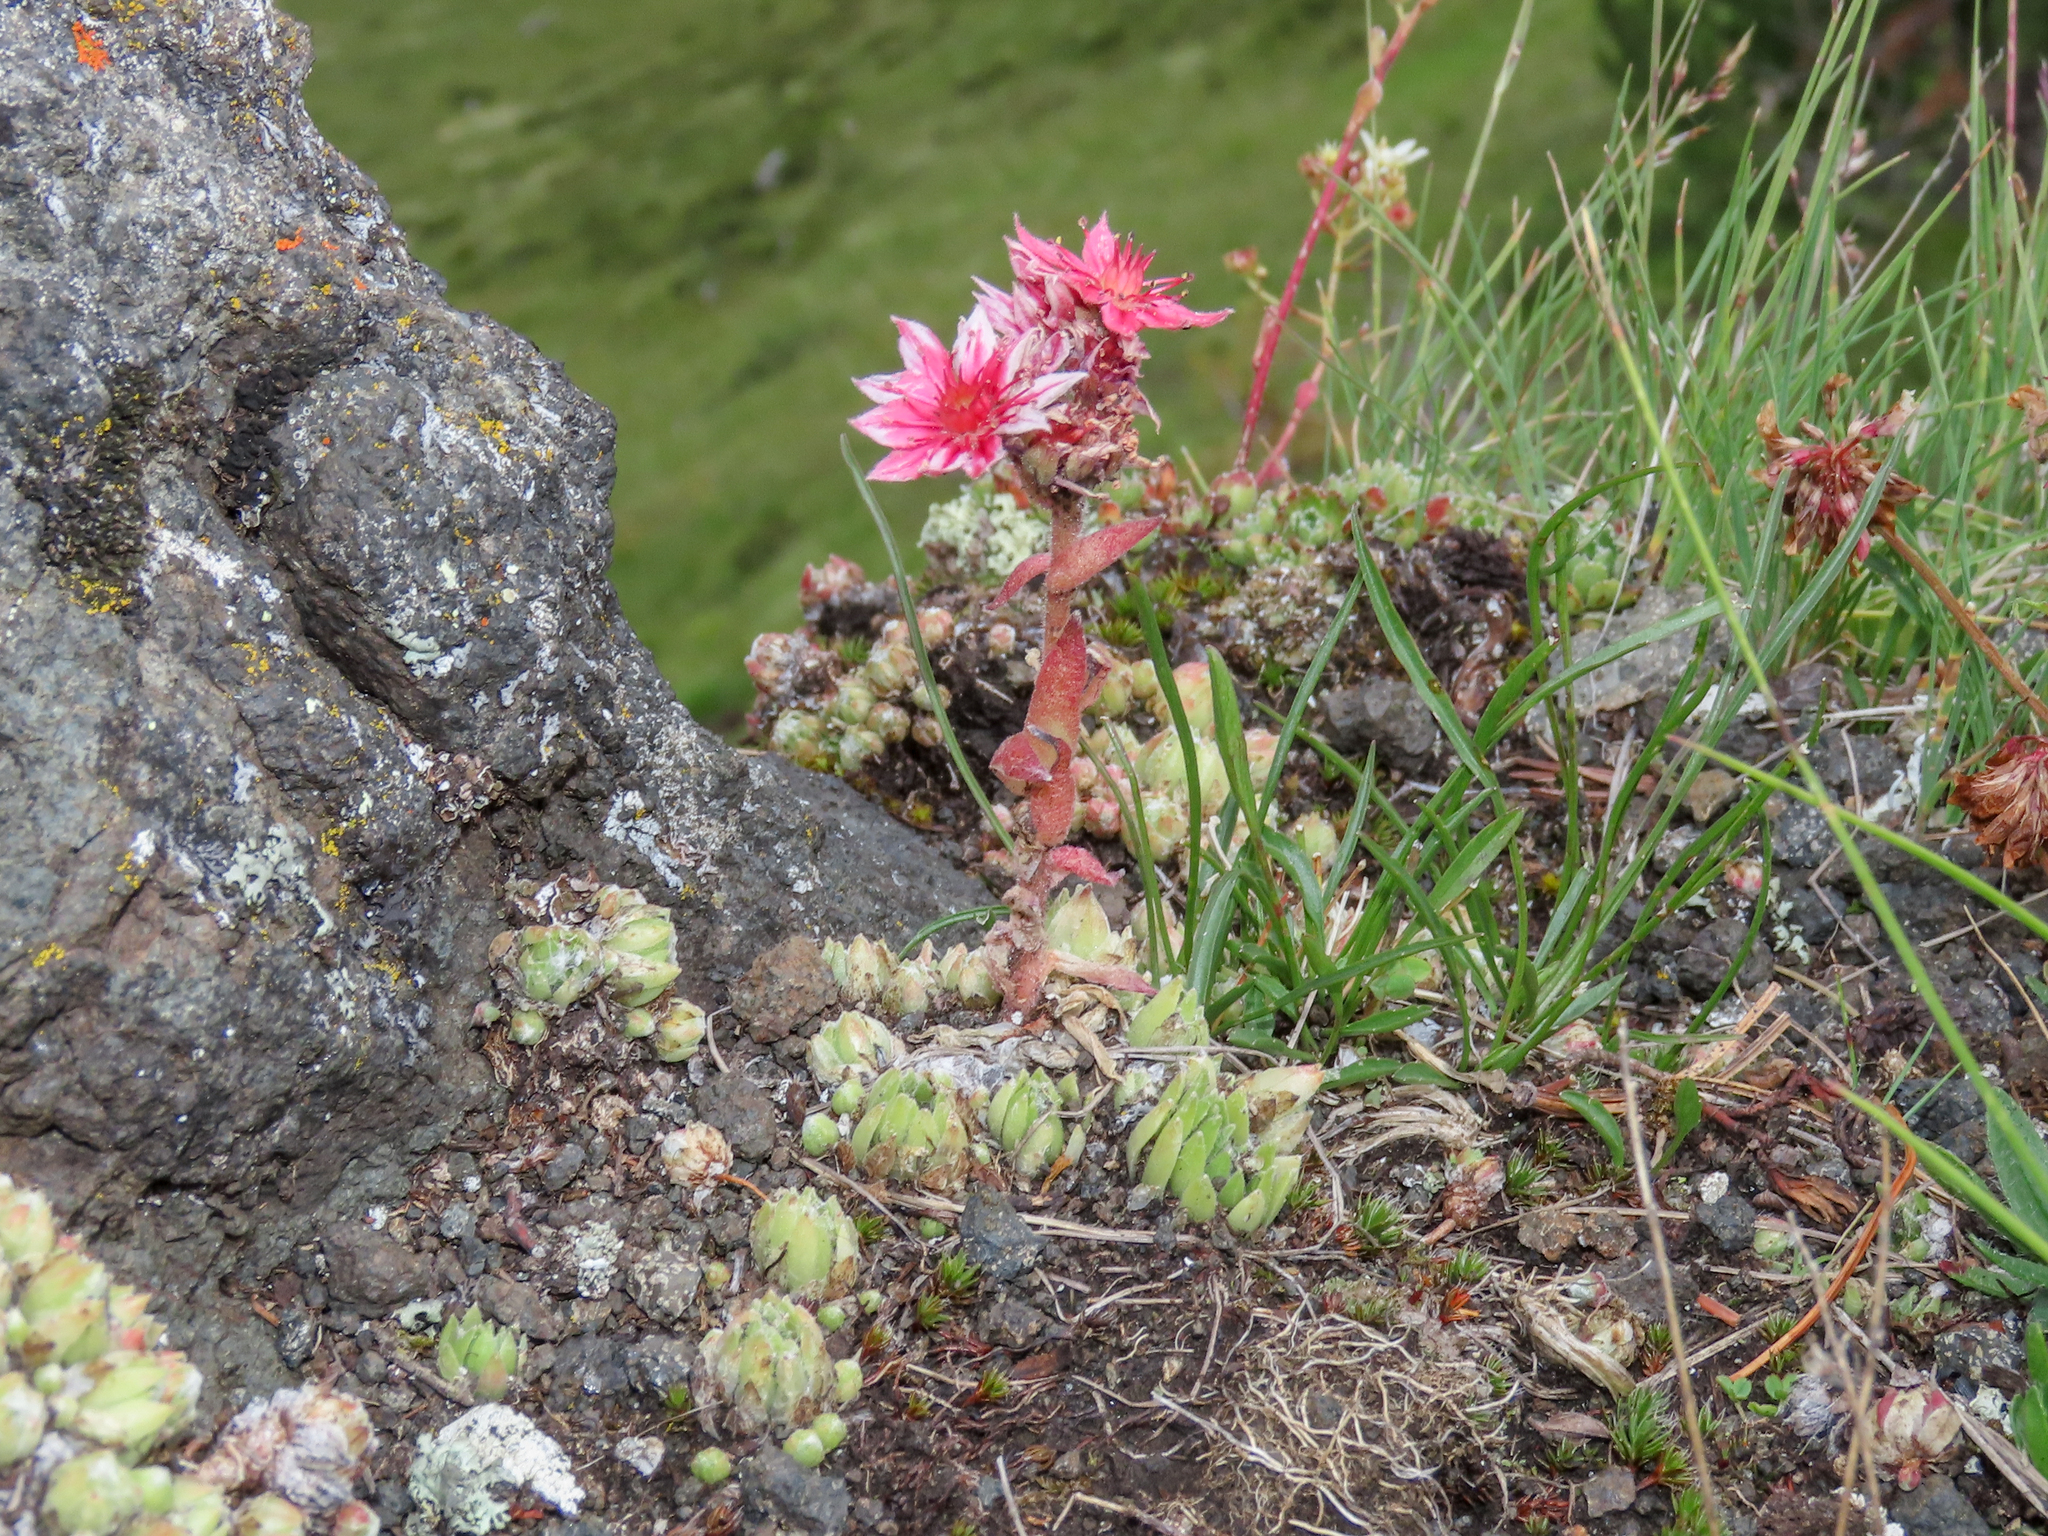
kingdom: Plantae
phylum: Tracheophyta
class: Magnoliopsida
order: Saxifragales
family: Crassulaceae
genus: Sempervivum
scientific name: Sempervivum dolomiticum
